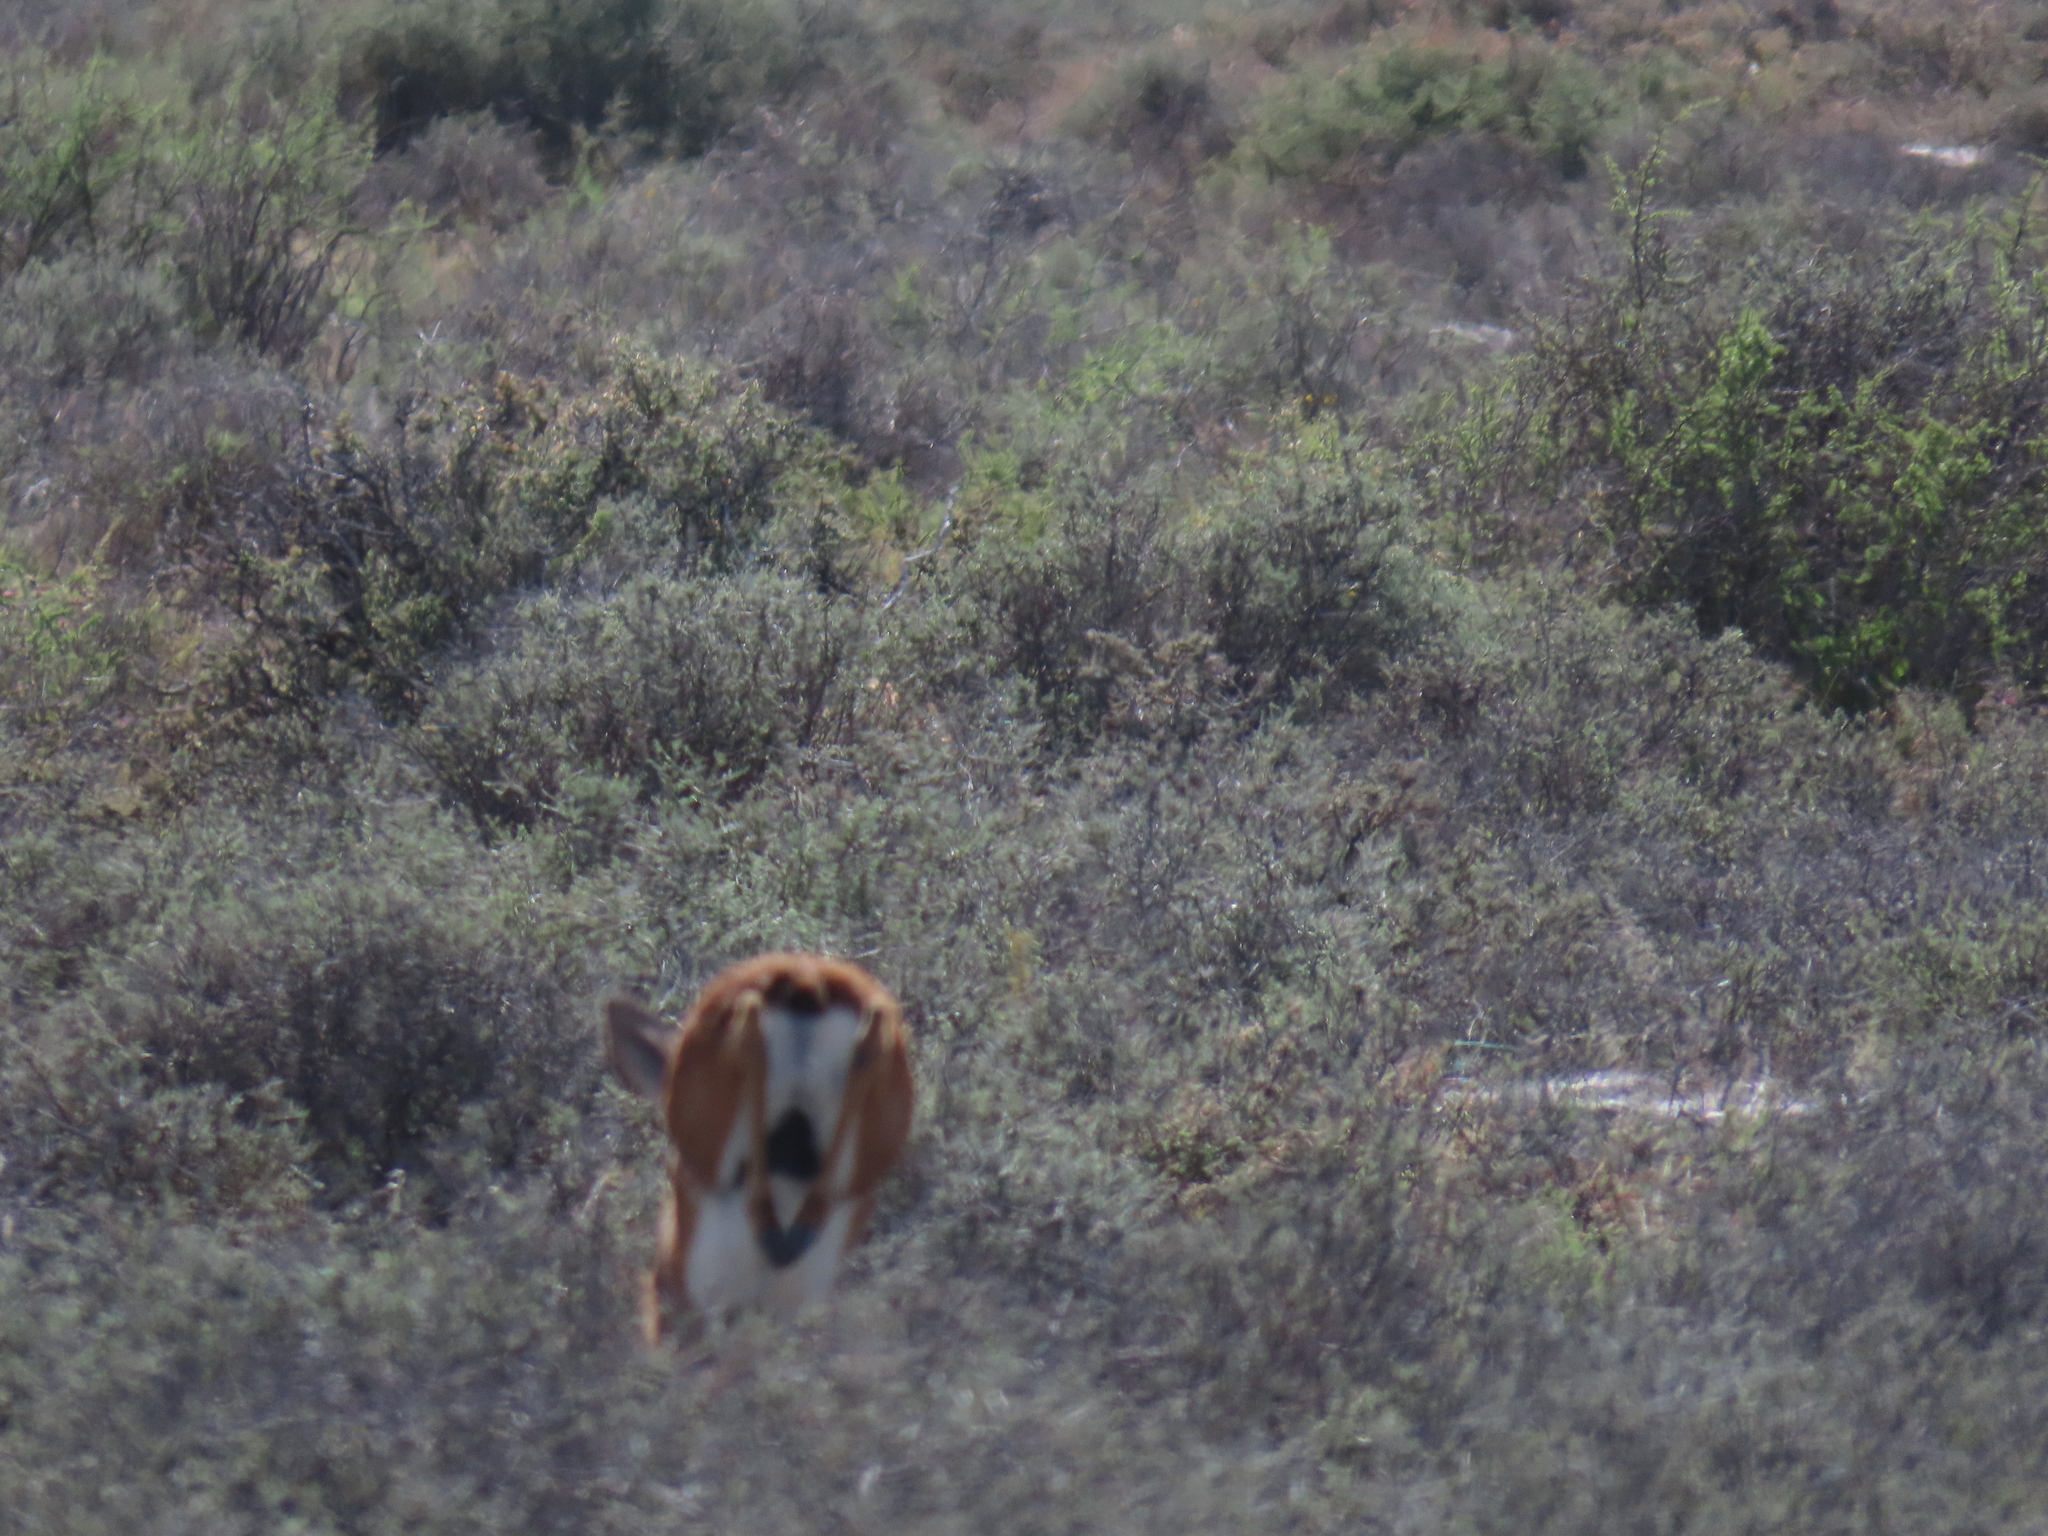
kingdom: Animalia
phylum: Chordata
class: Mammalia
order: Artiodactyla
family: Bovidae
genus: Raphicerus
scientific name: Raphicerus campestris
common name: Steenbok
